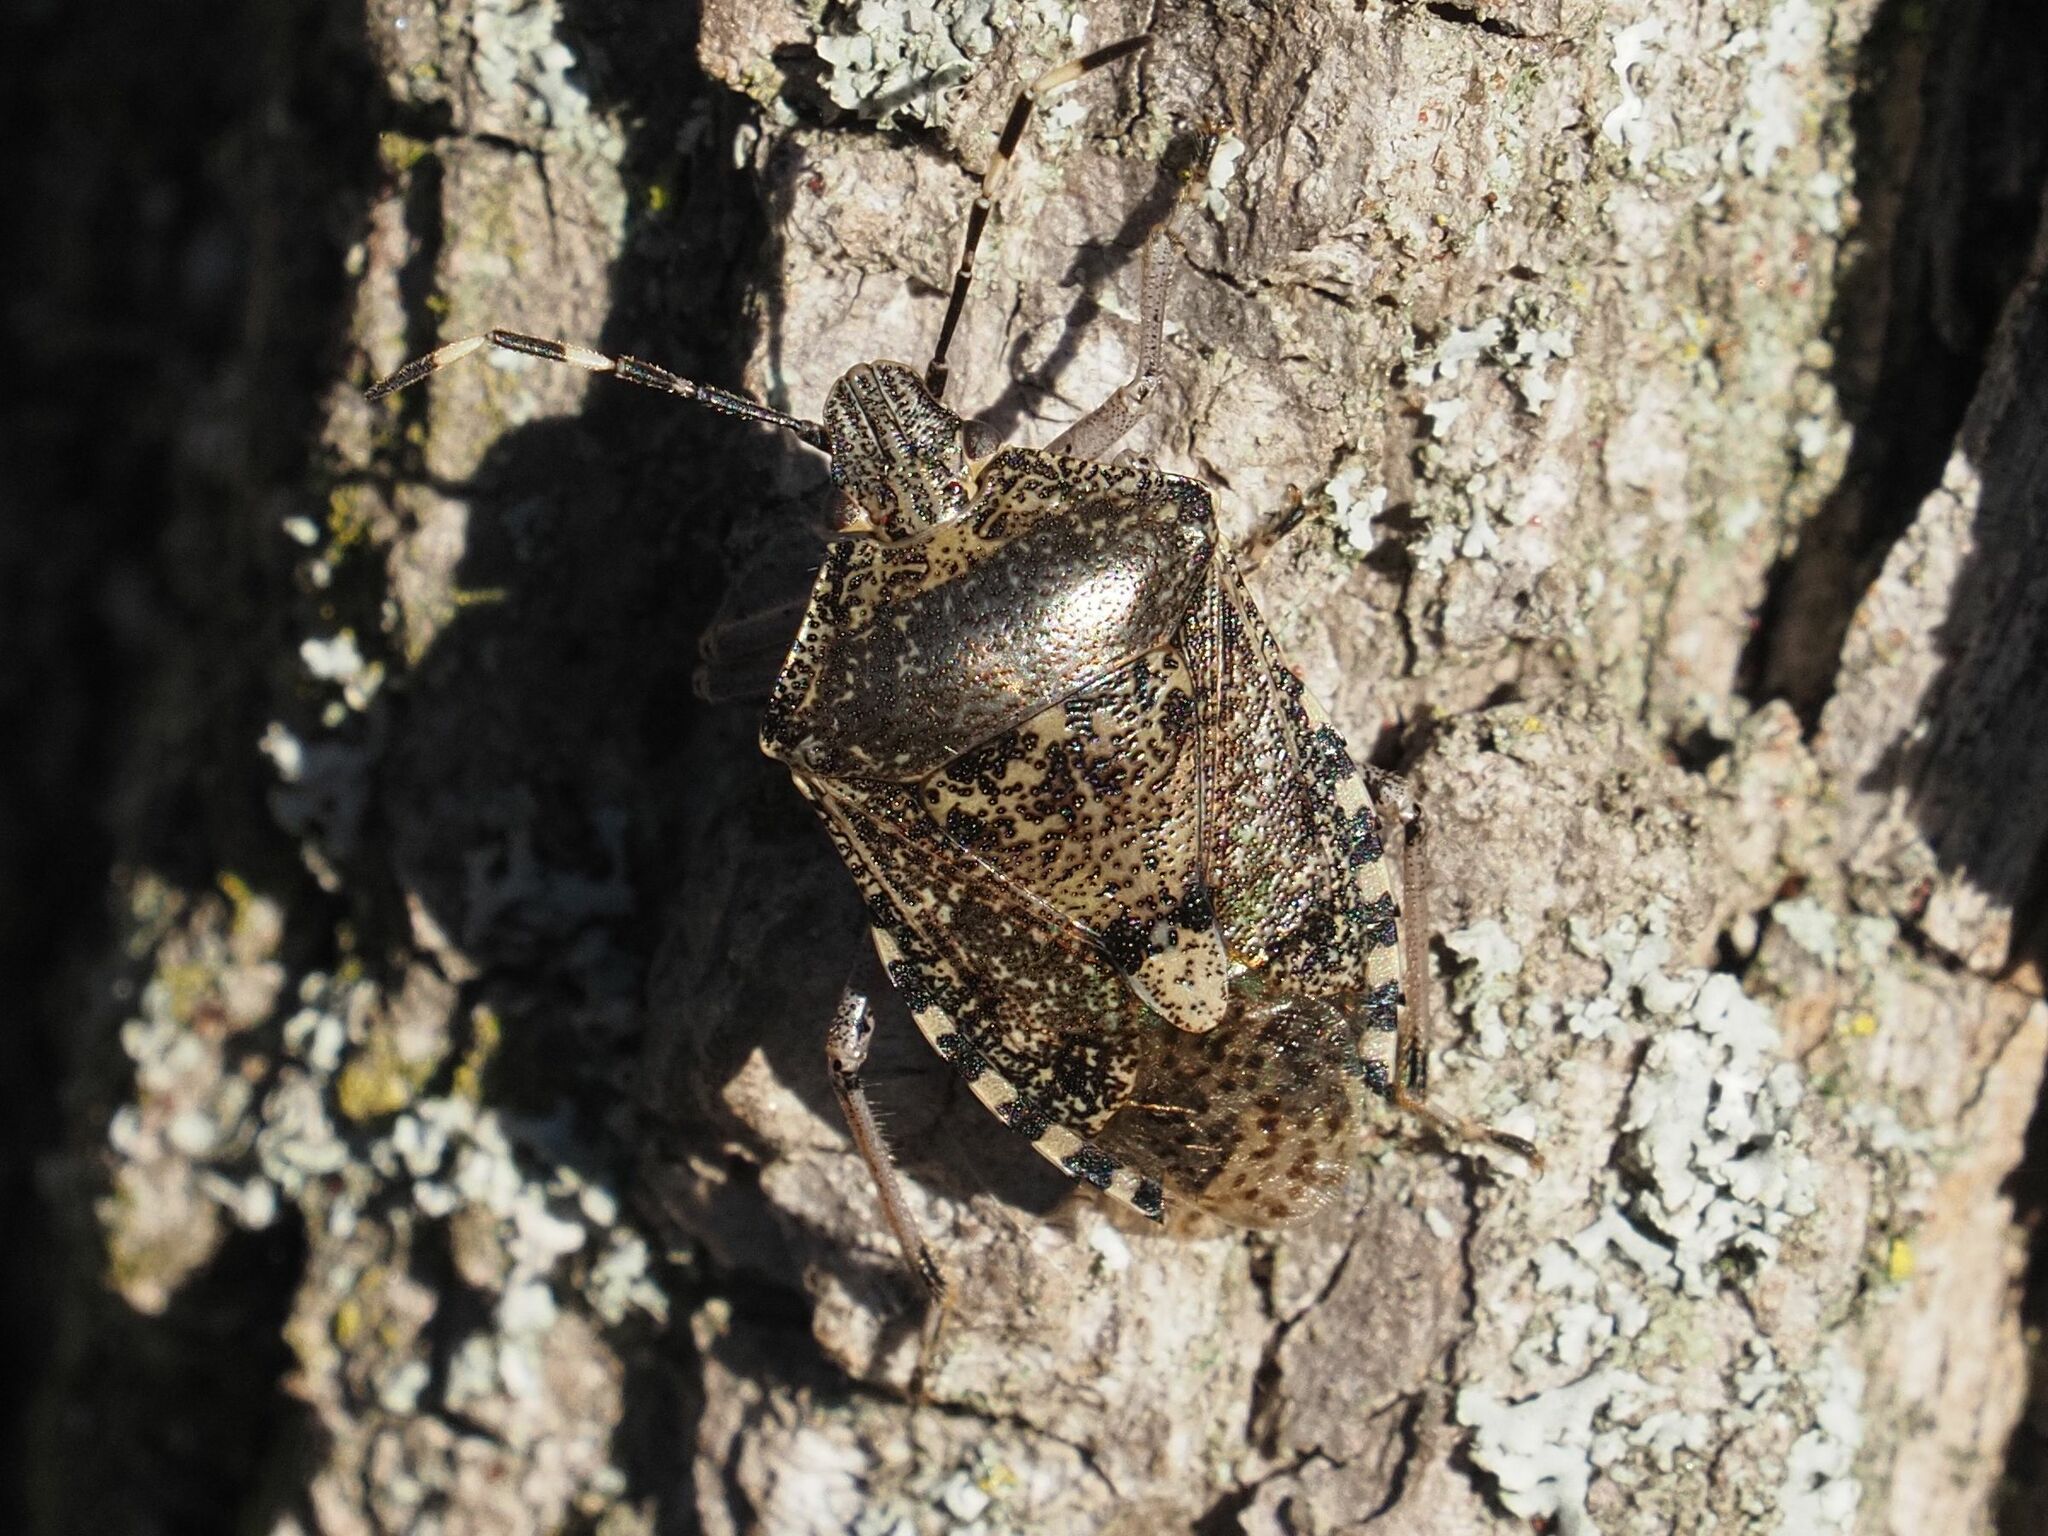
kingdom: Animalia
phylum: Arthropoda
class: Insecta
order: Hemiptera
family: Pentatomidae
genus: Rhaphigaster
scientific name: Rhaphigaster nebulosa
